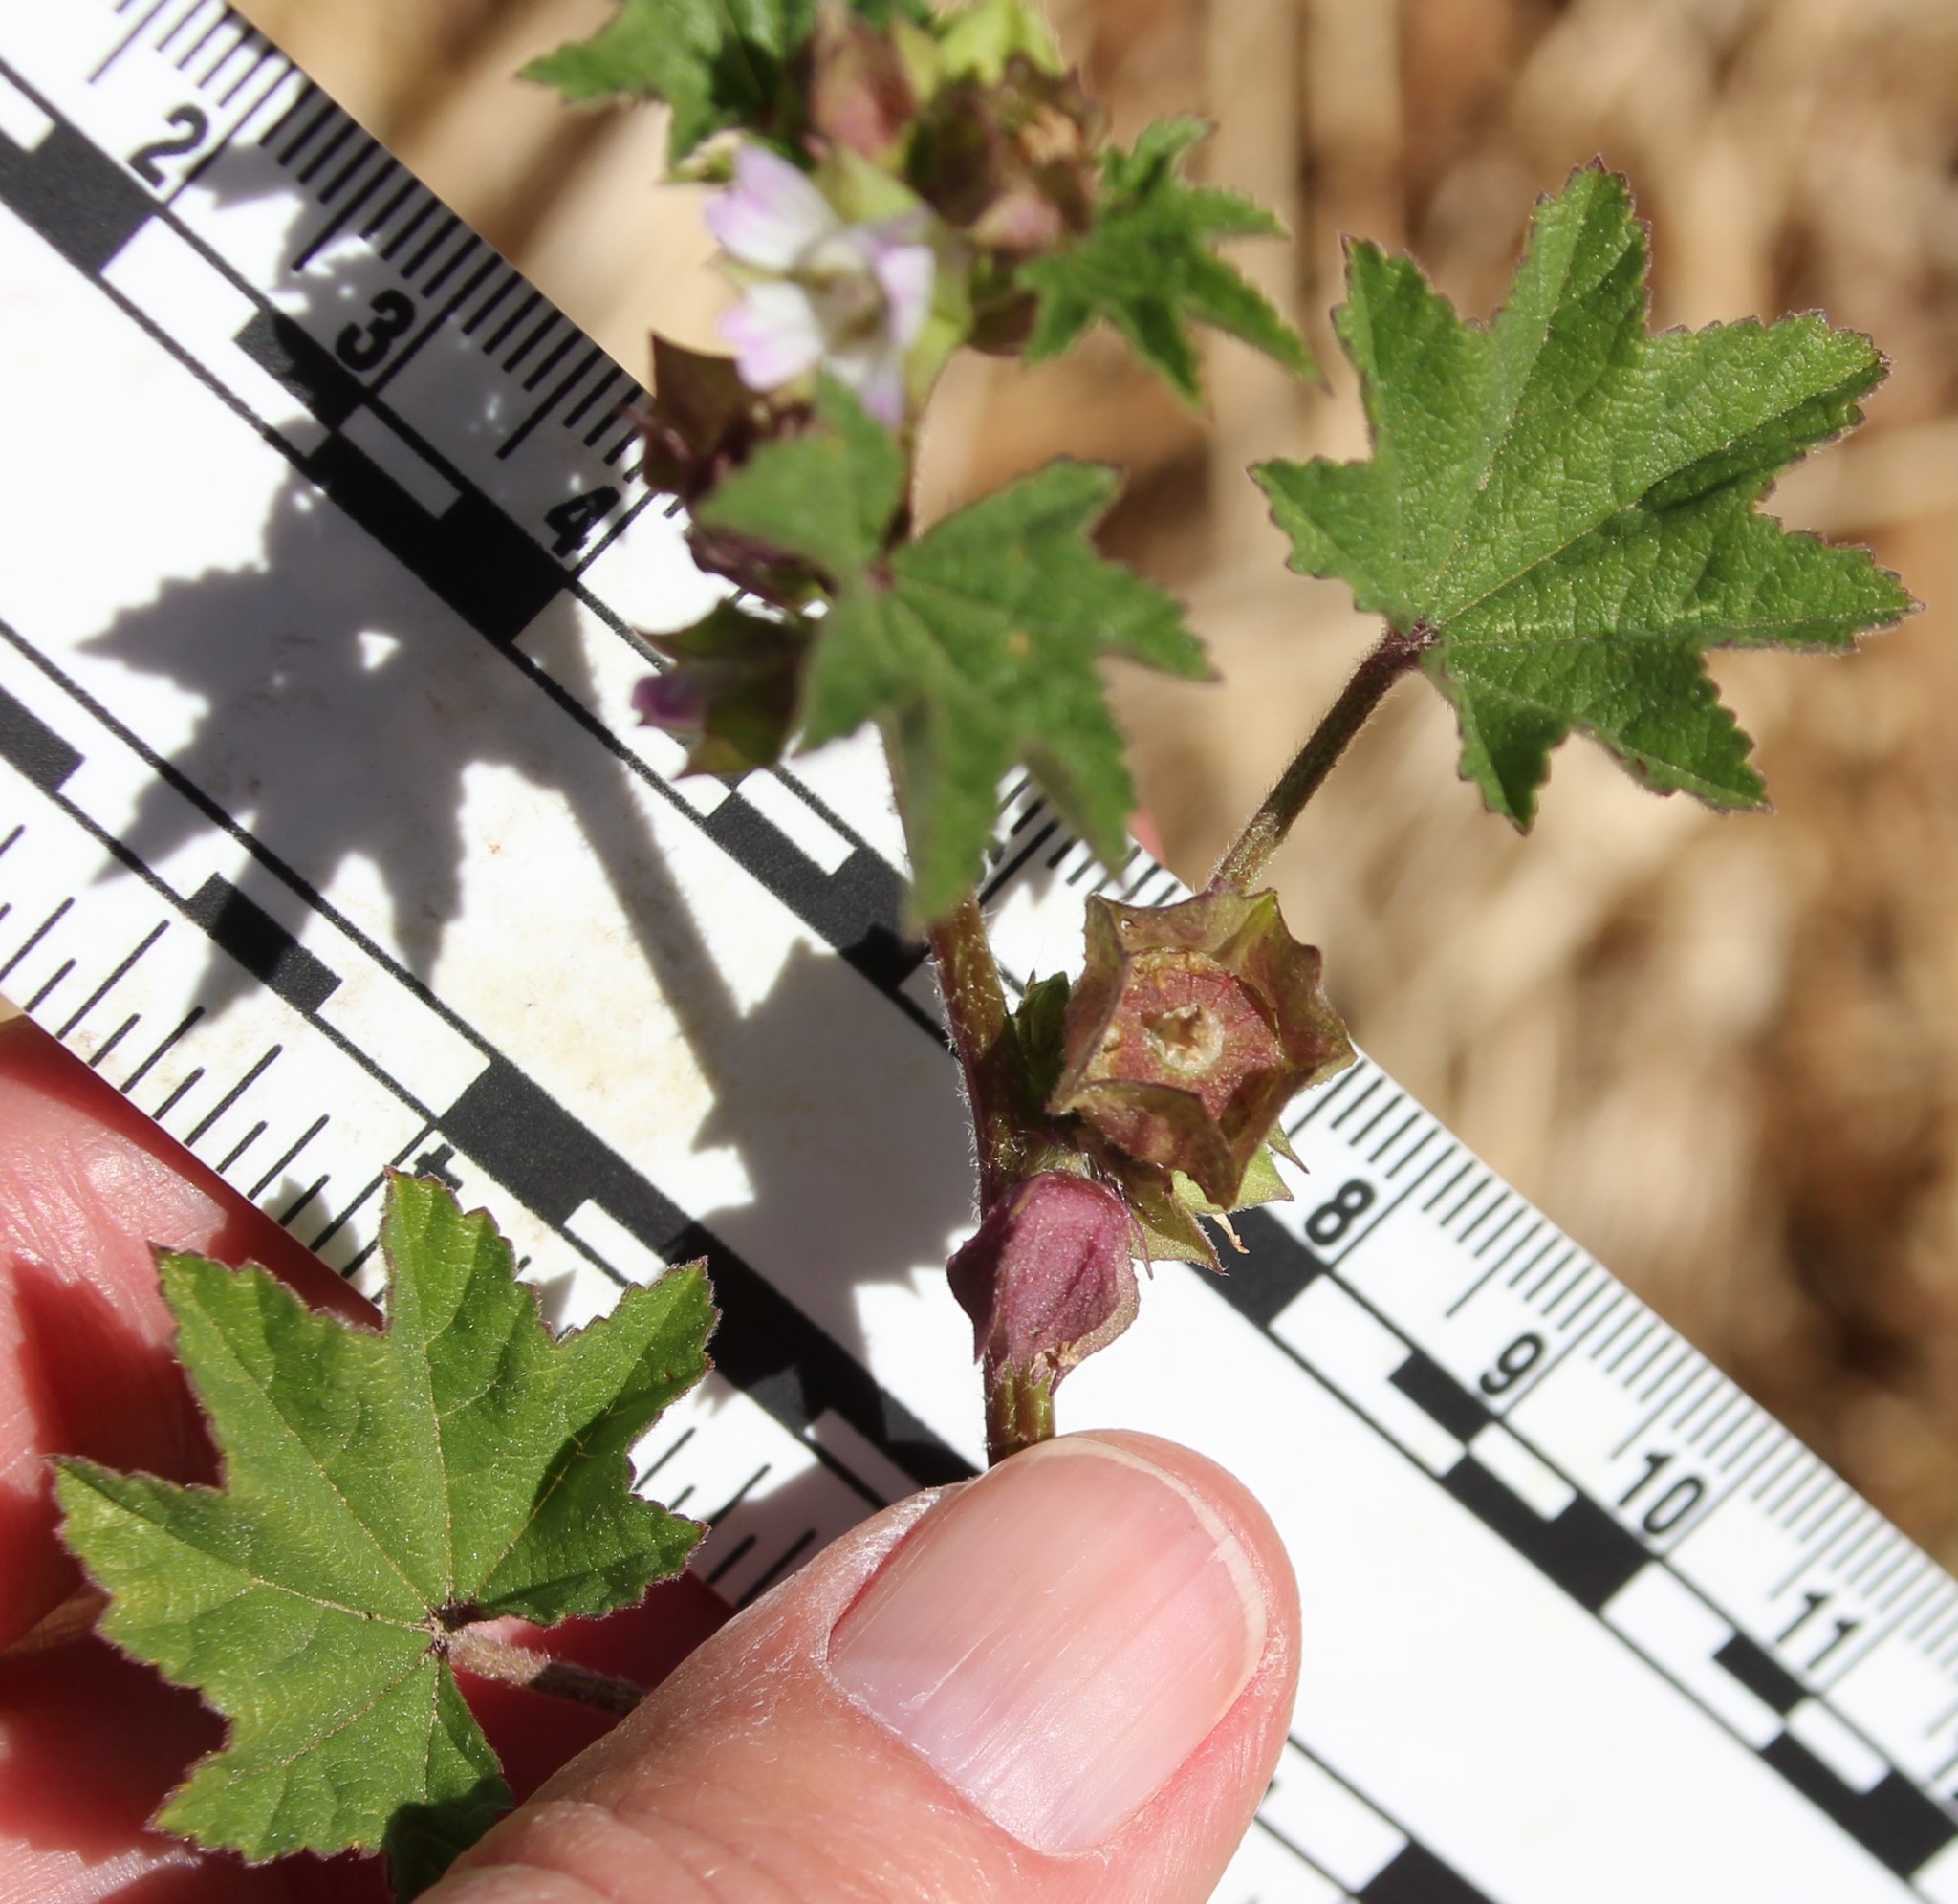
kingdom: Plantae
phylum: Tracheophyta
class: Magnoliopsida
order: Malvales
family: Malvaceae
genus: Malva
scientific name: Malva parviflora
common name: Least mallow
